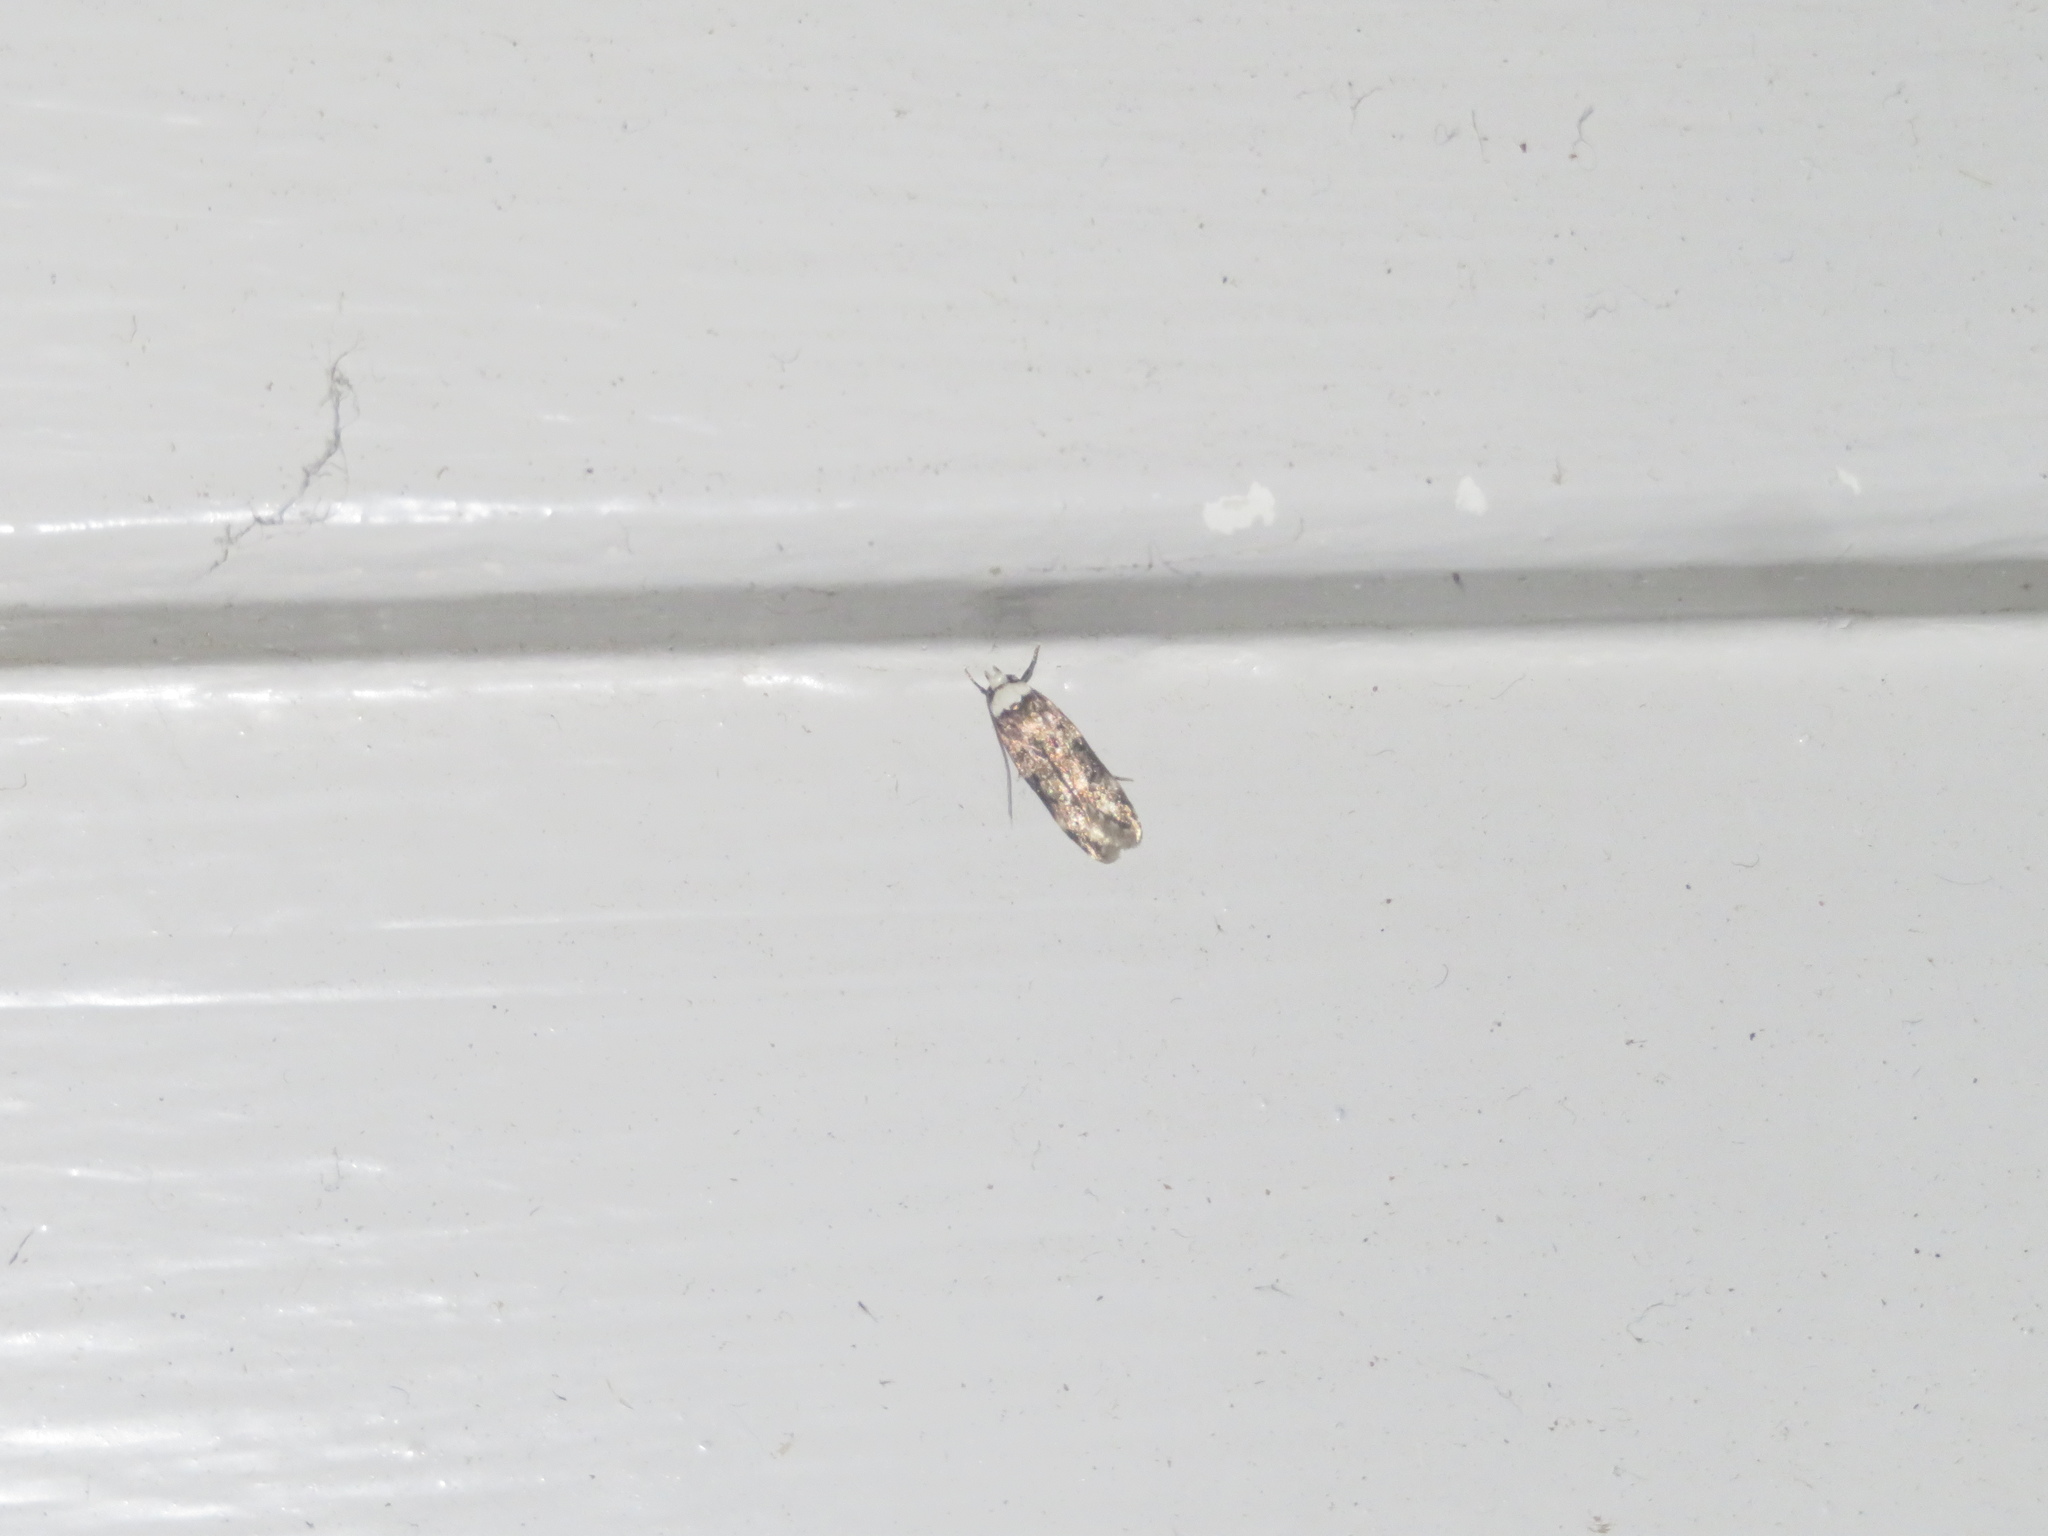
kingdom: Animalia
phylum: Arthropoda
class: Insecta
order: Lepidoptera
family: Oecophoridae
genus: Endrosis
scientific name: Endrosis sarcitrella
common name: White-shouldered house moth
